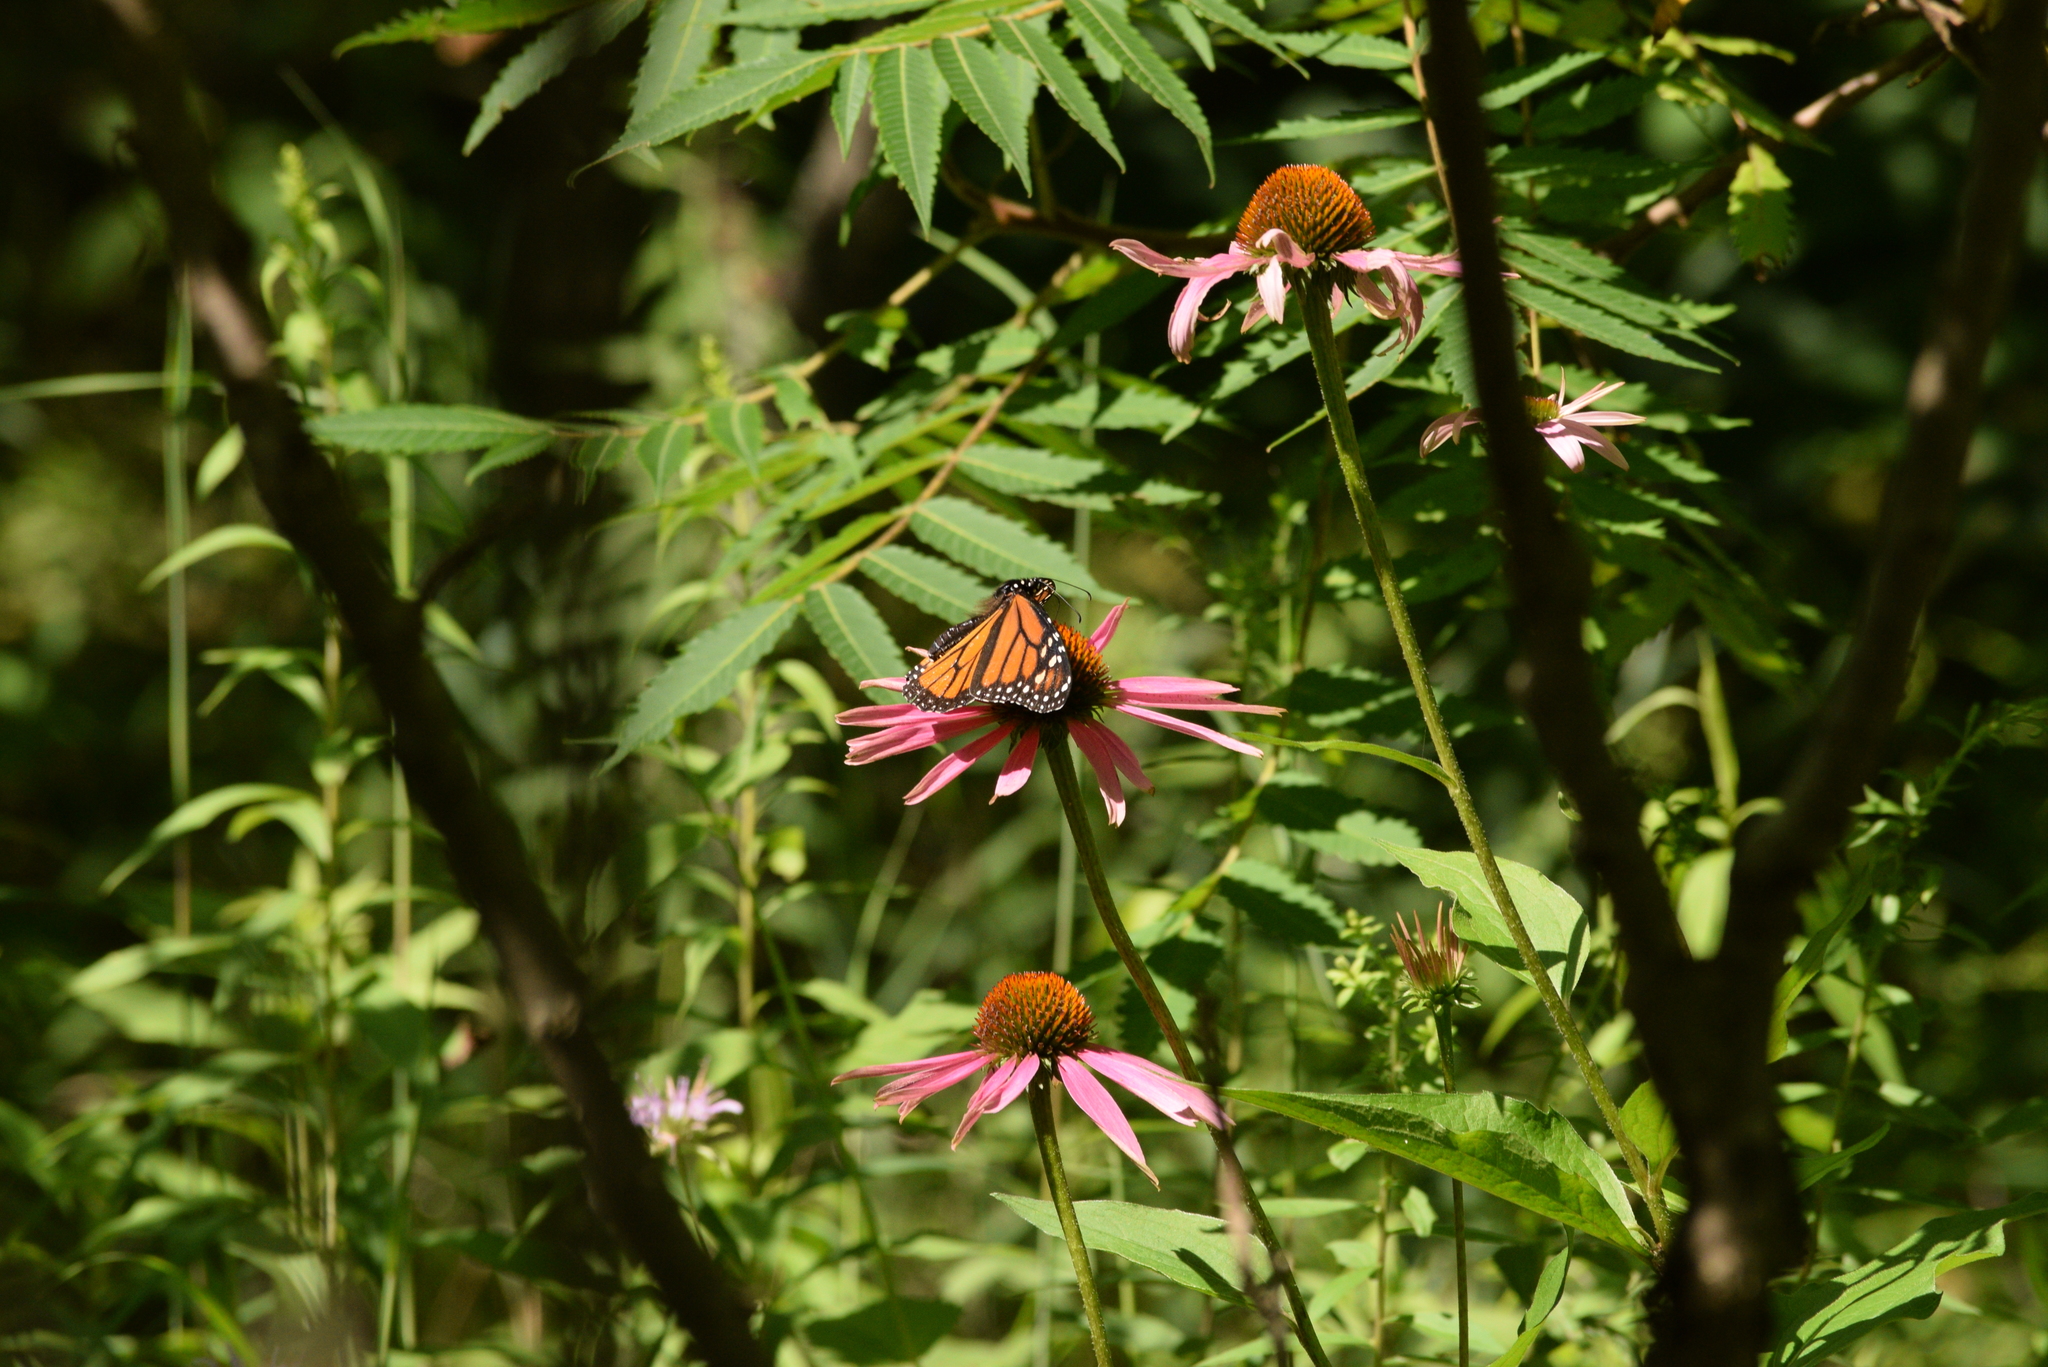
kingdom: Animalia
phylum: Arthropoda
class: Insecta
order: Lepidoptera
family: Nymphalidae
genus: Danaus
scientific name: Danaus plexippus
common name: Monarch
